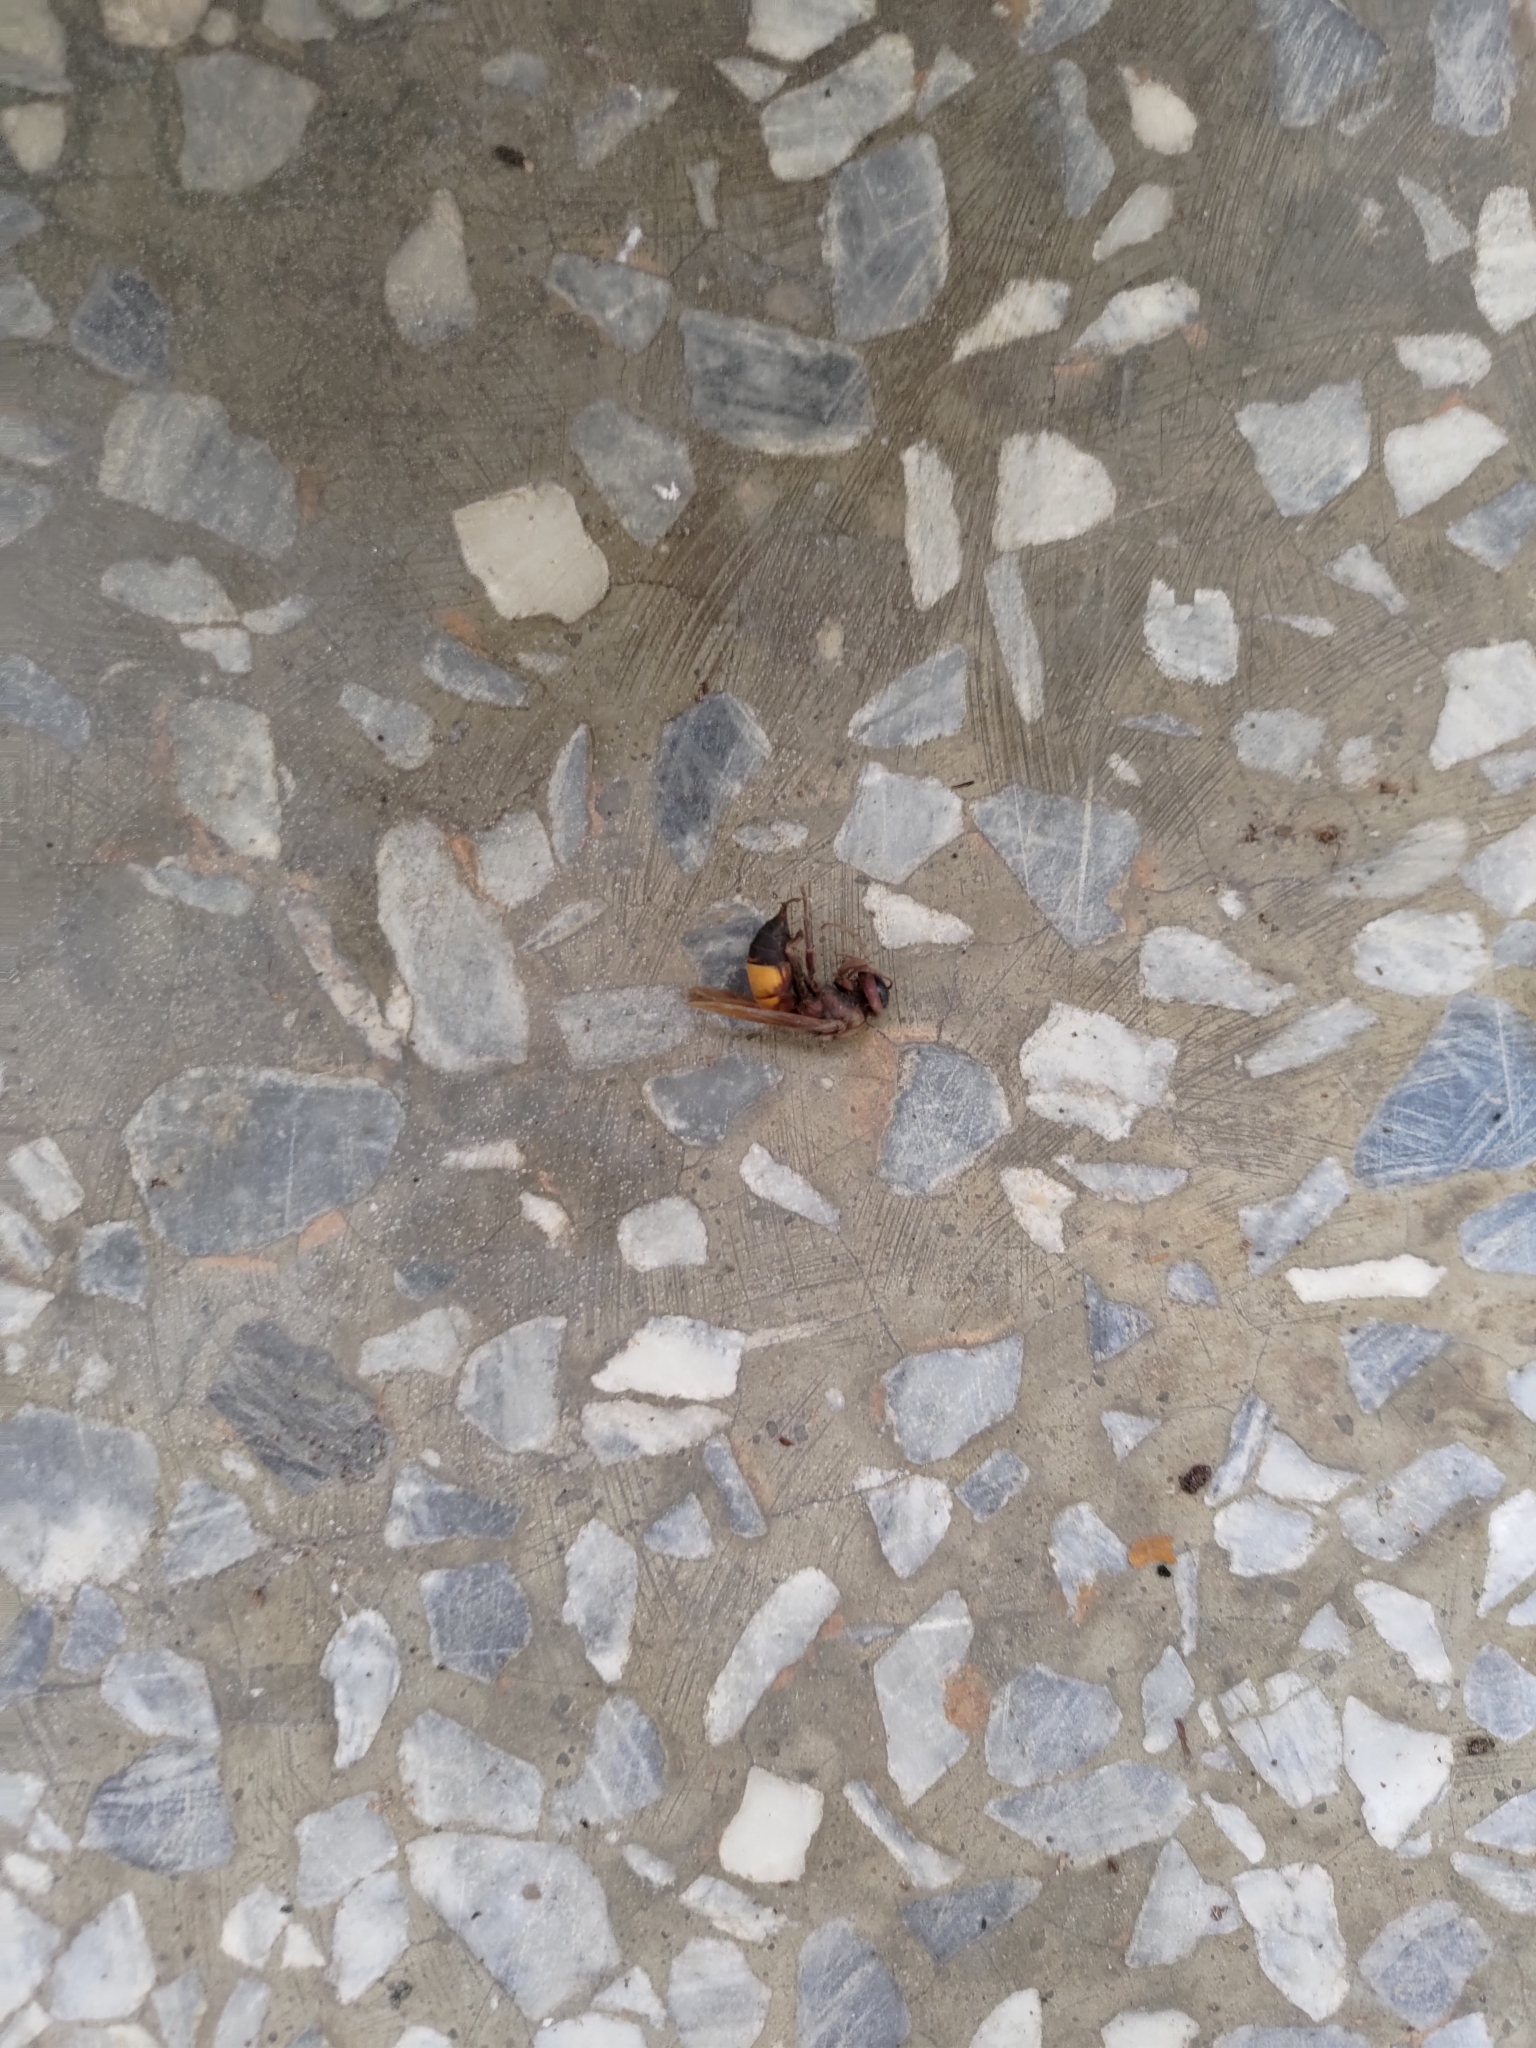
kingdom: Animalia
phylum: Arthropoda
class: Insecta
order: Hymenoptera
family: Vespidae
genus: Vespa
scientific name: Vespa affinis
